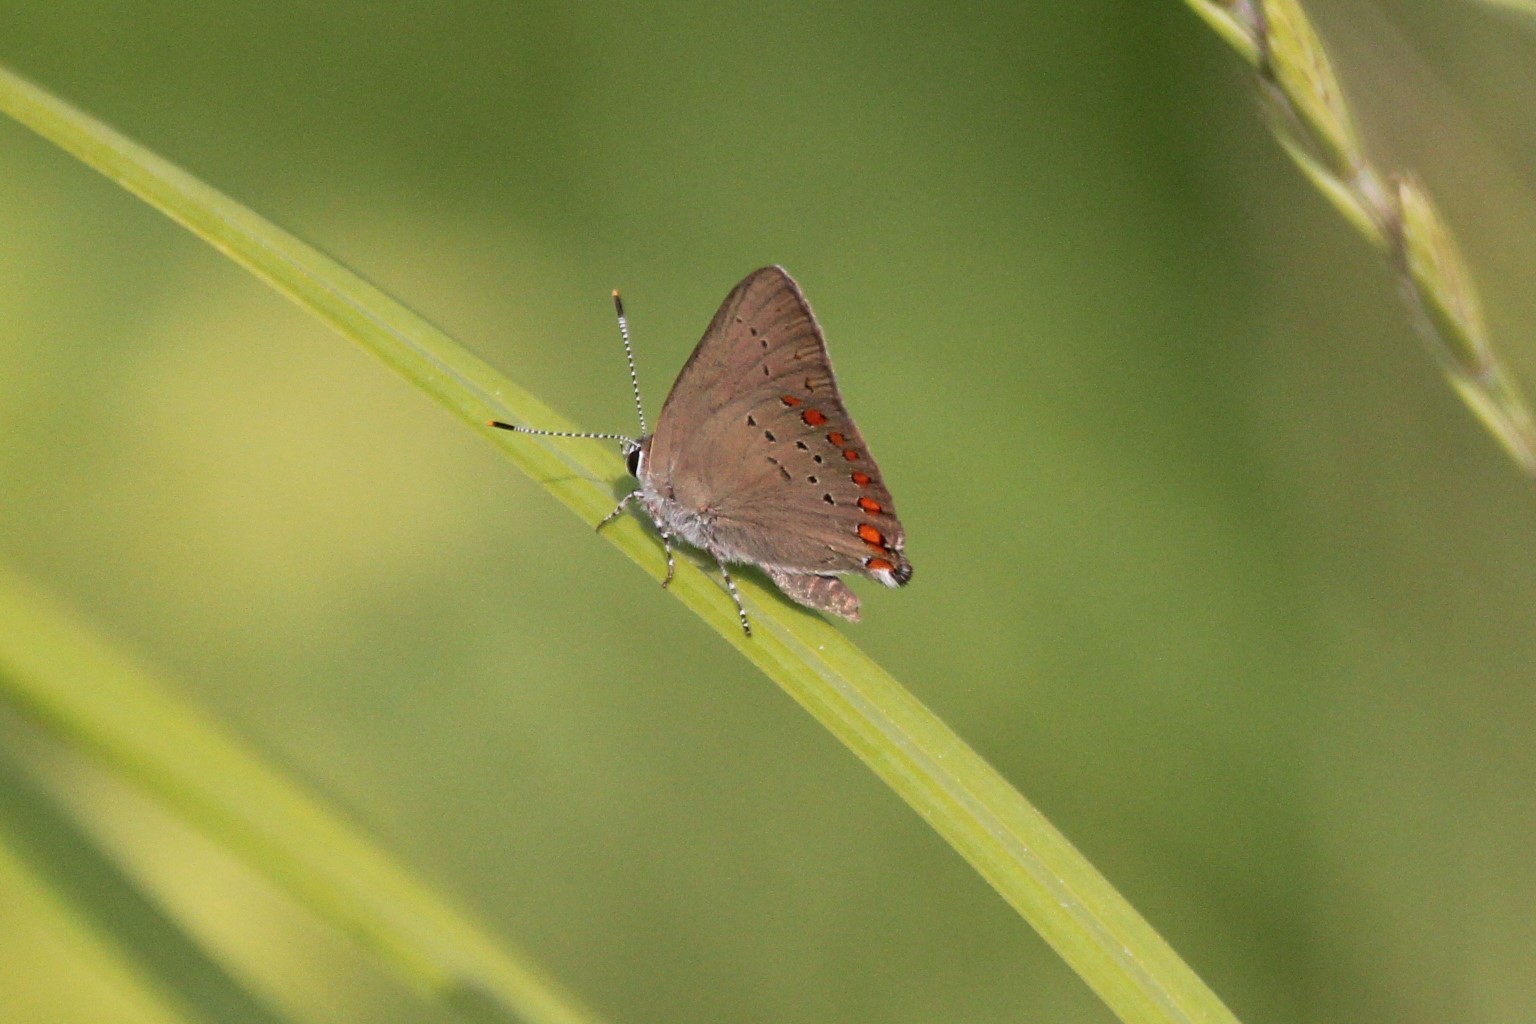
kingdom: Animalia
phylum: Arthropoda
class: Insecta
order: Lepidoptera
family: Lycaenidae
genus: Harkenclenus
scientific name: Harkenclenus titus
